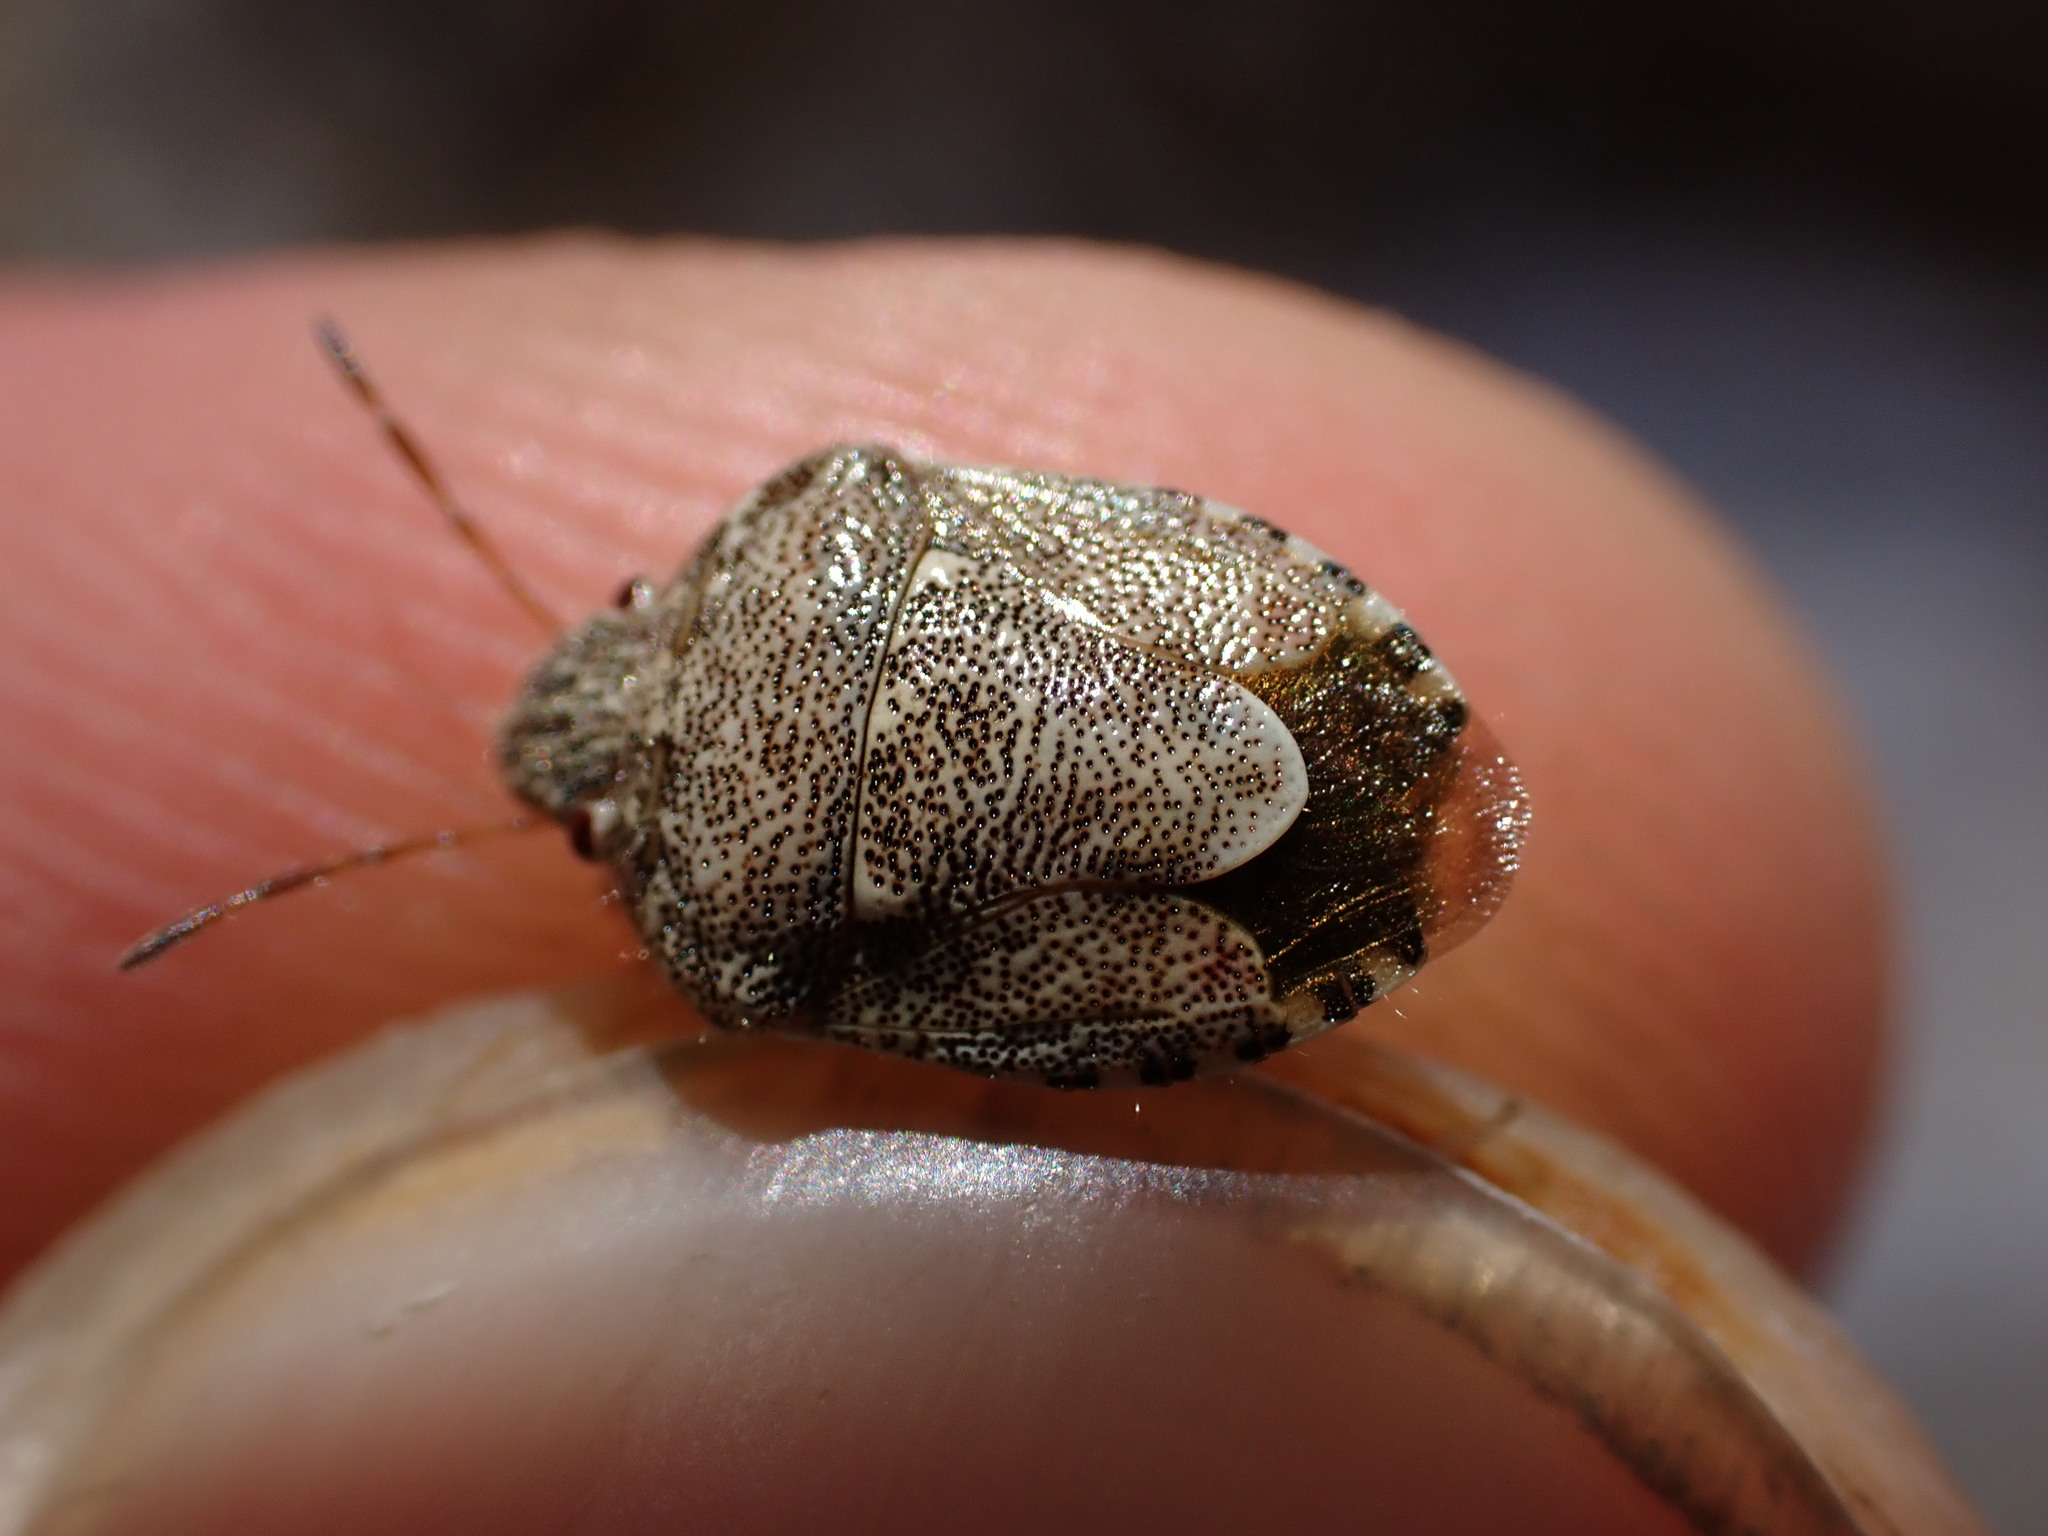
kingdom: Animalia
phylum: Arthropoda
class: Insecta
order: Hemiptera
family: Pentatomidae
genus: Staria
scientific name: Staria lunata
